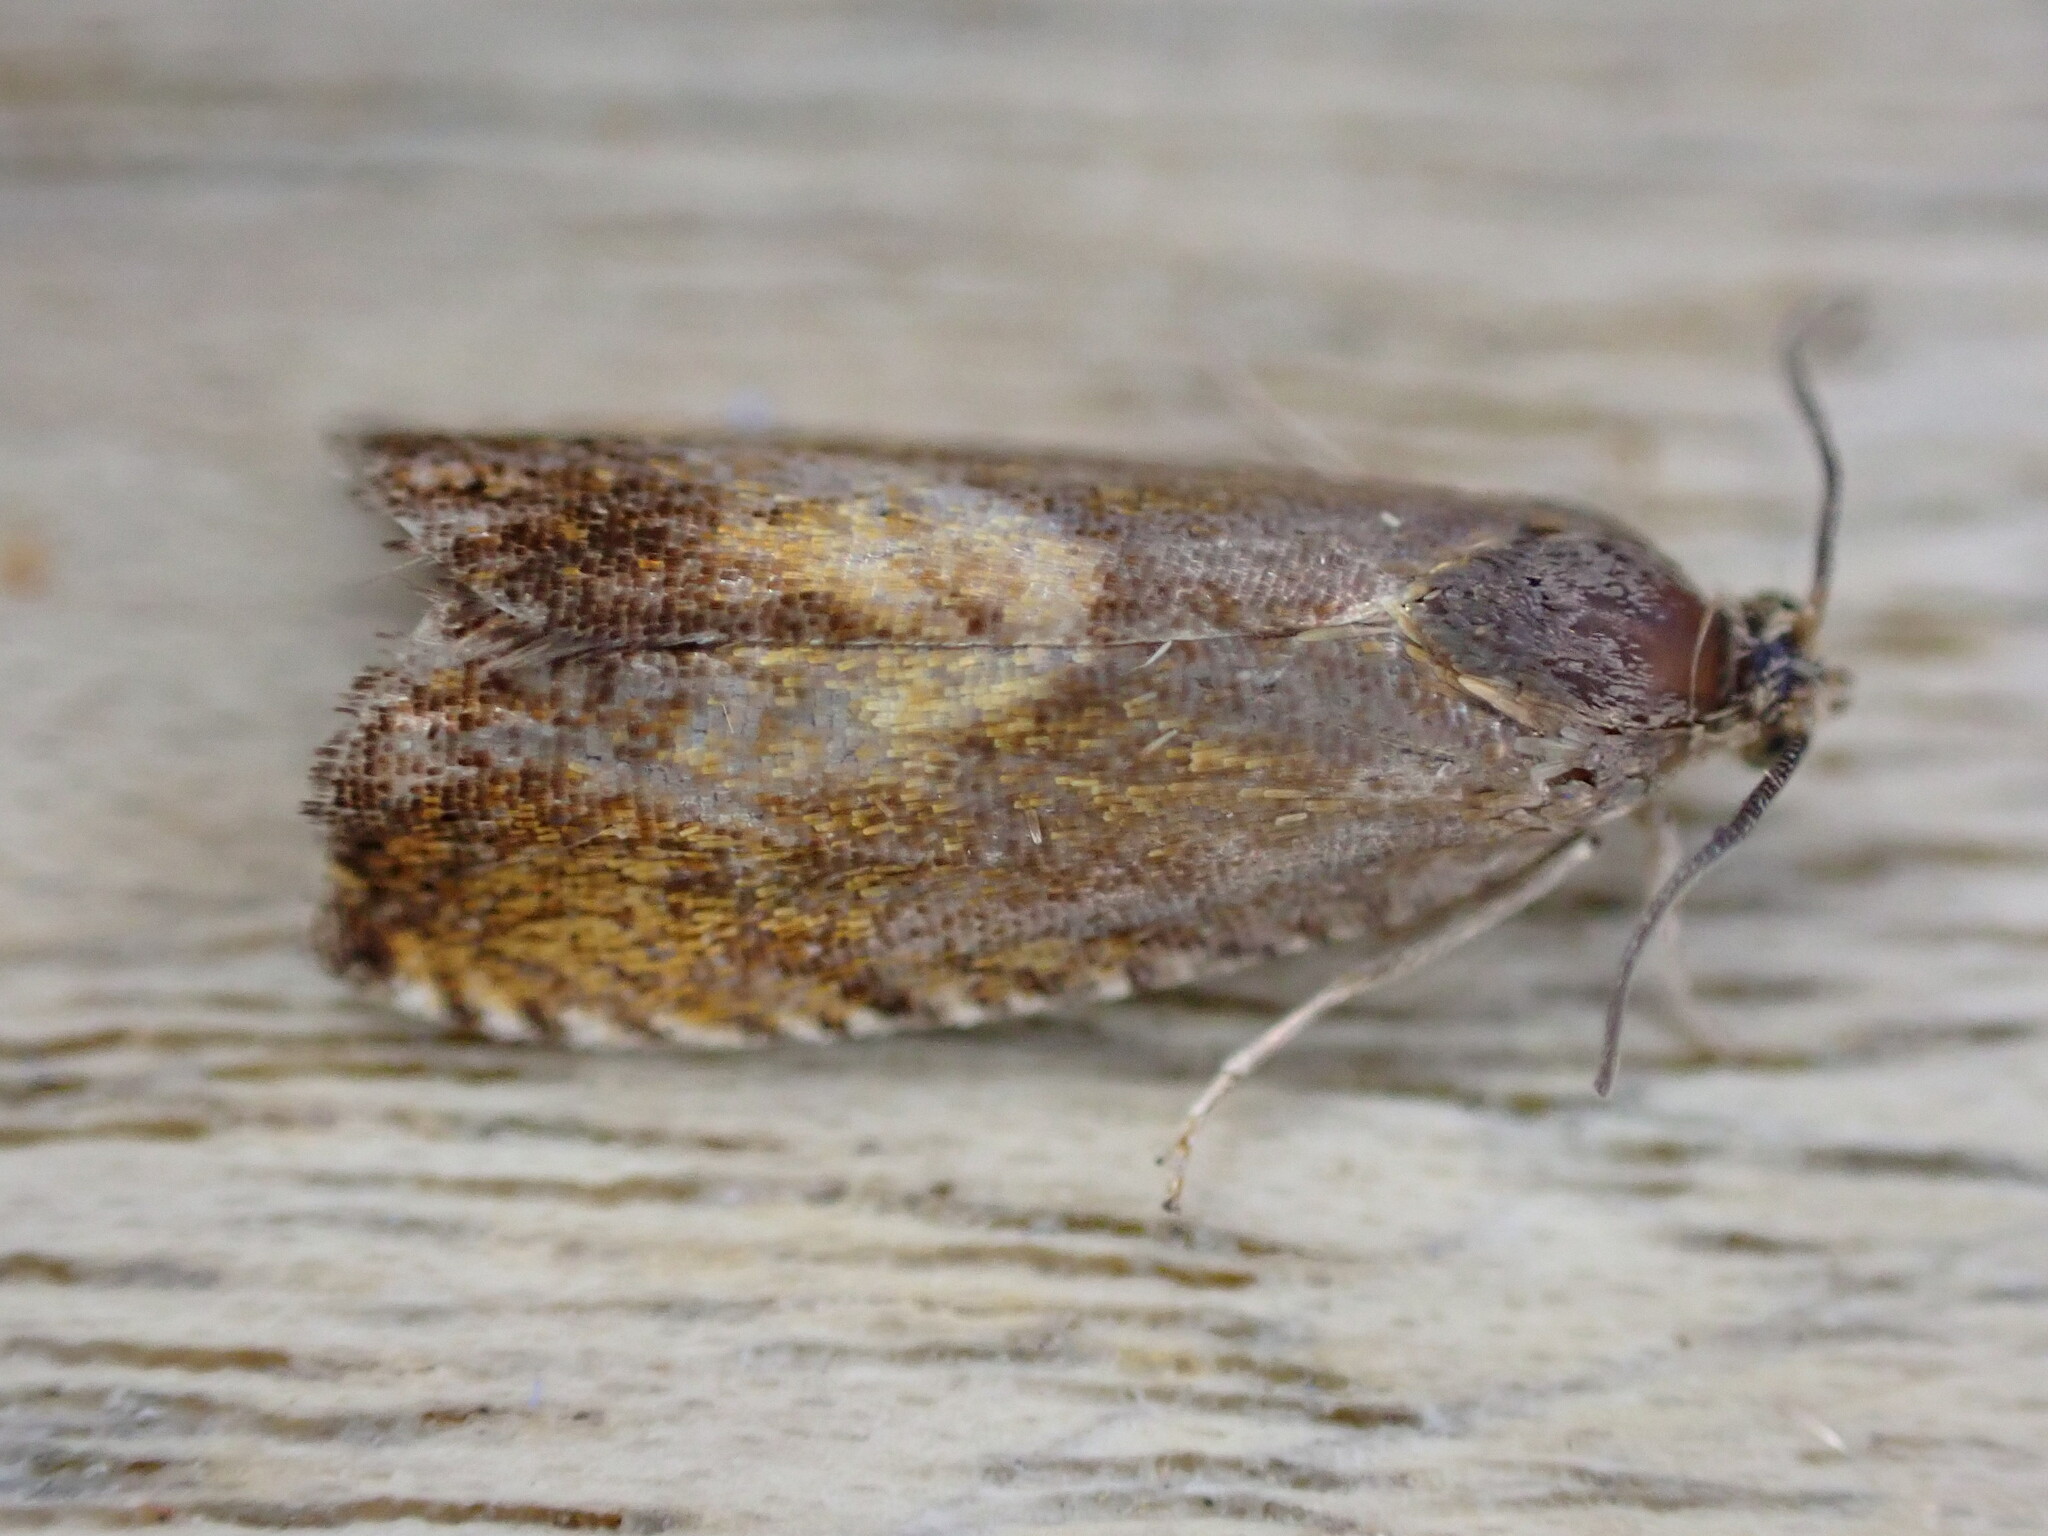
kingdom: Animalia
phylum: Arthropoda
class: Insecta
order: Lepidoptera
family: Tortricidae
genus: Dichrorampha
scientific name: Dichrorampha petiverella
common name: Common drill
